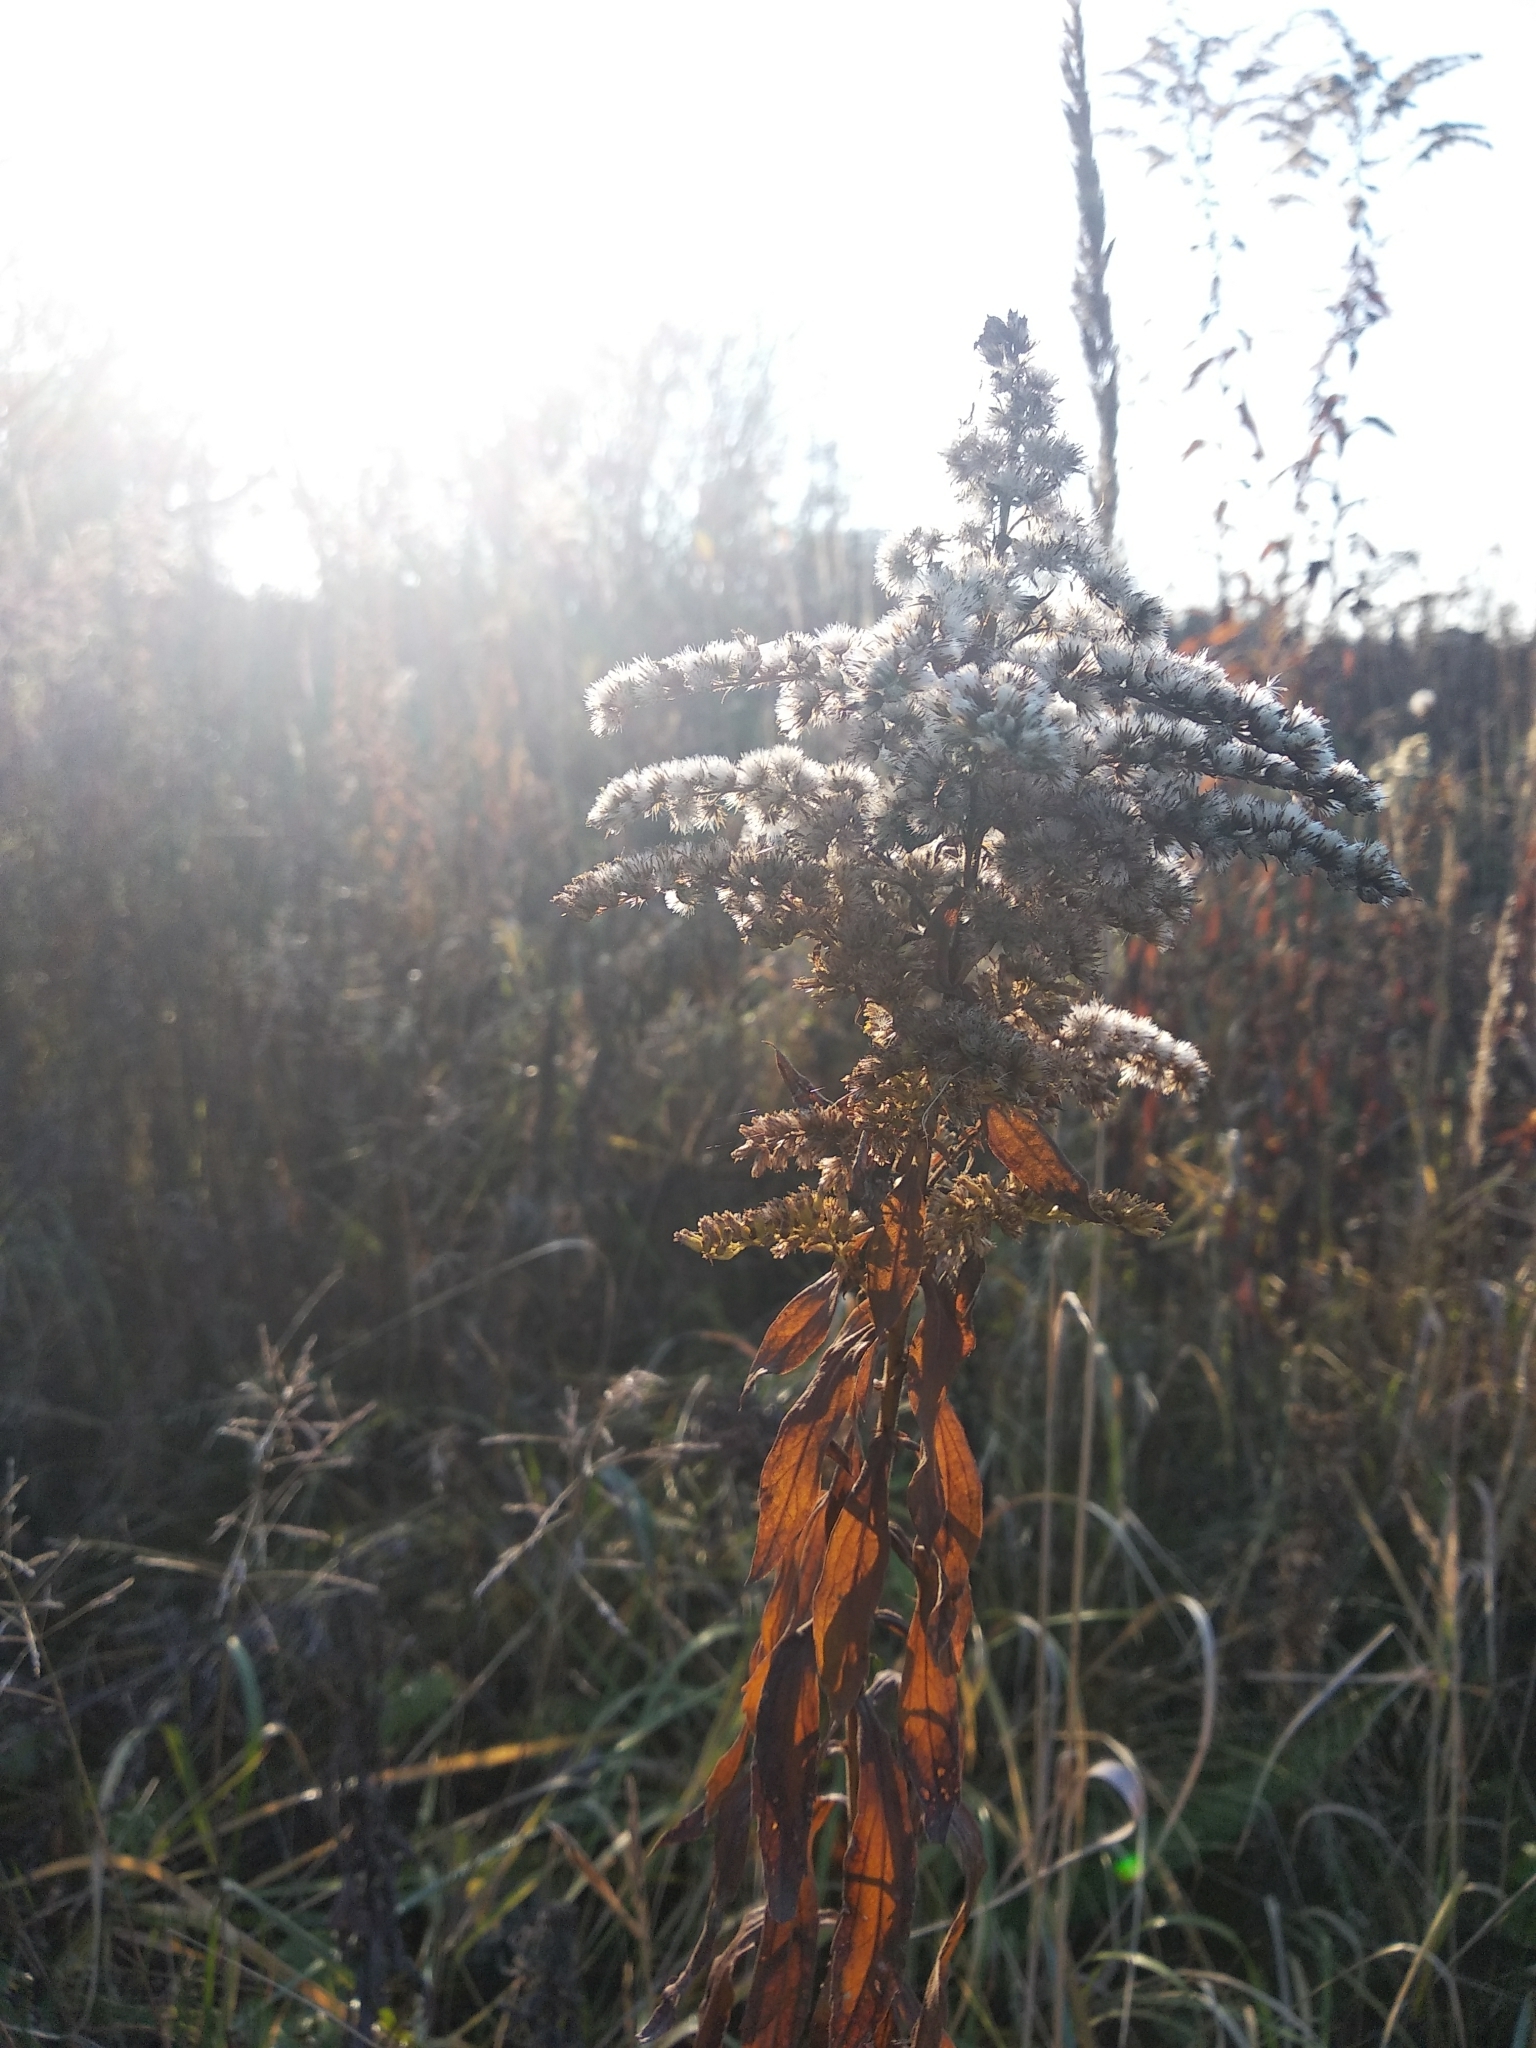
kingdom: Plantae
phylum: Tracheophyta
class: Magnoliopsida
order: Asterales
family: Asteraceae
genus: Solidago
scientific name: Solidago canadensis
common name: Canada goldenrod
